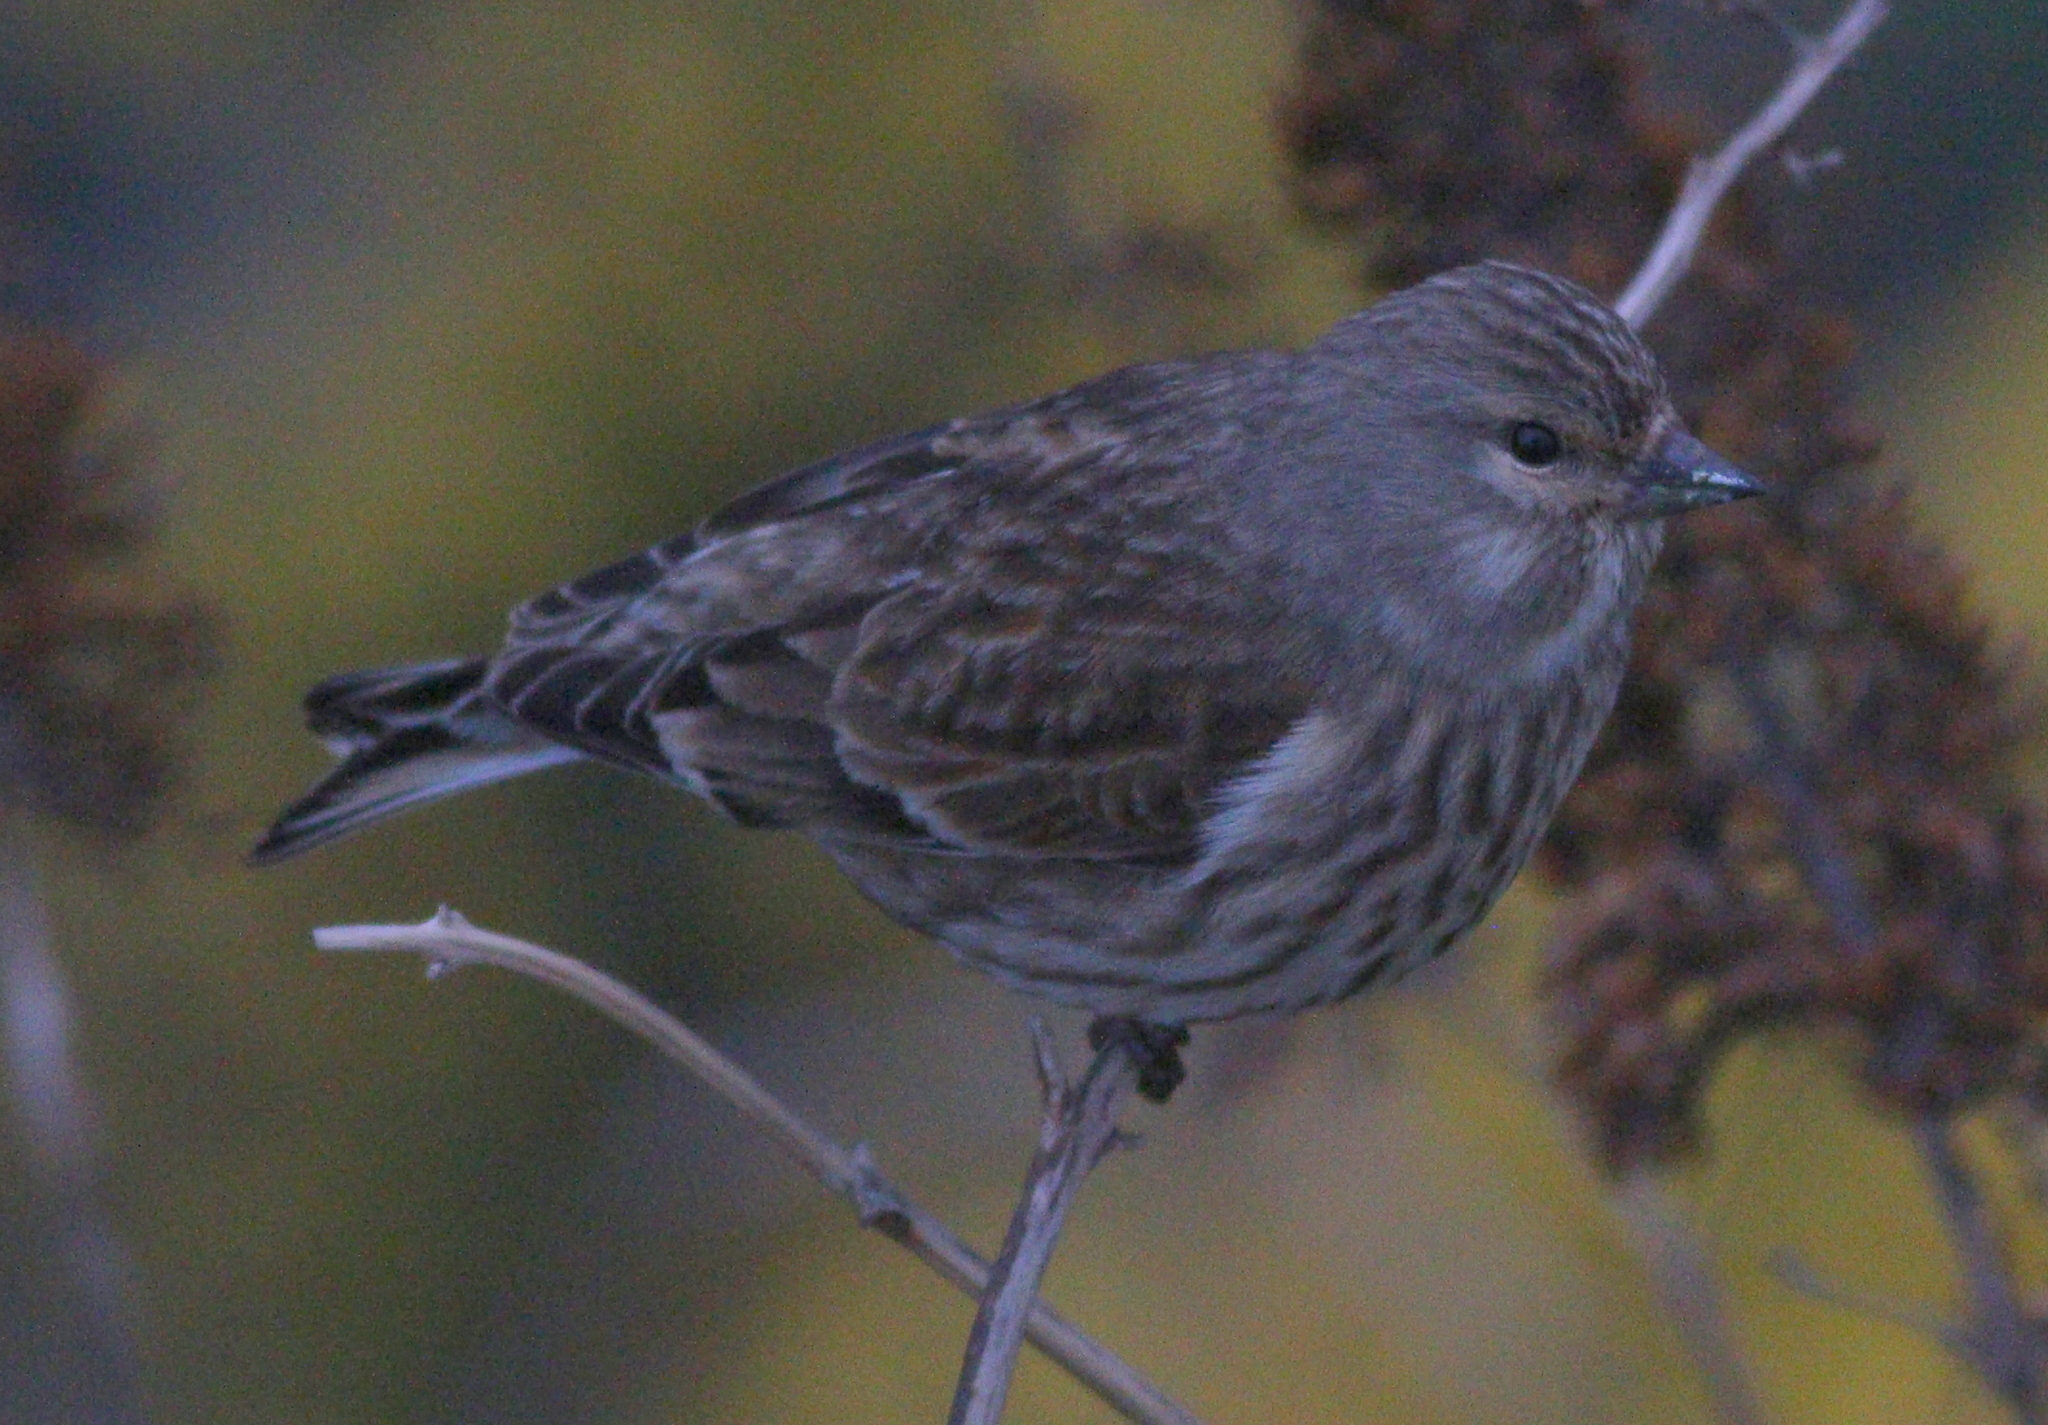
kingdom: Animalia
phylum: Chordata
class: Aves
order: Passeriformes
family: Fringillidae
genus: Linaria
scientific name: Linaria cannabina
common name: Common linnet
